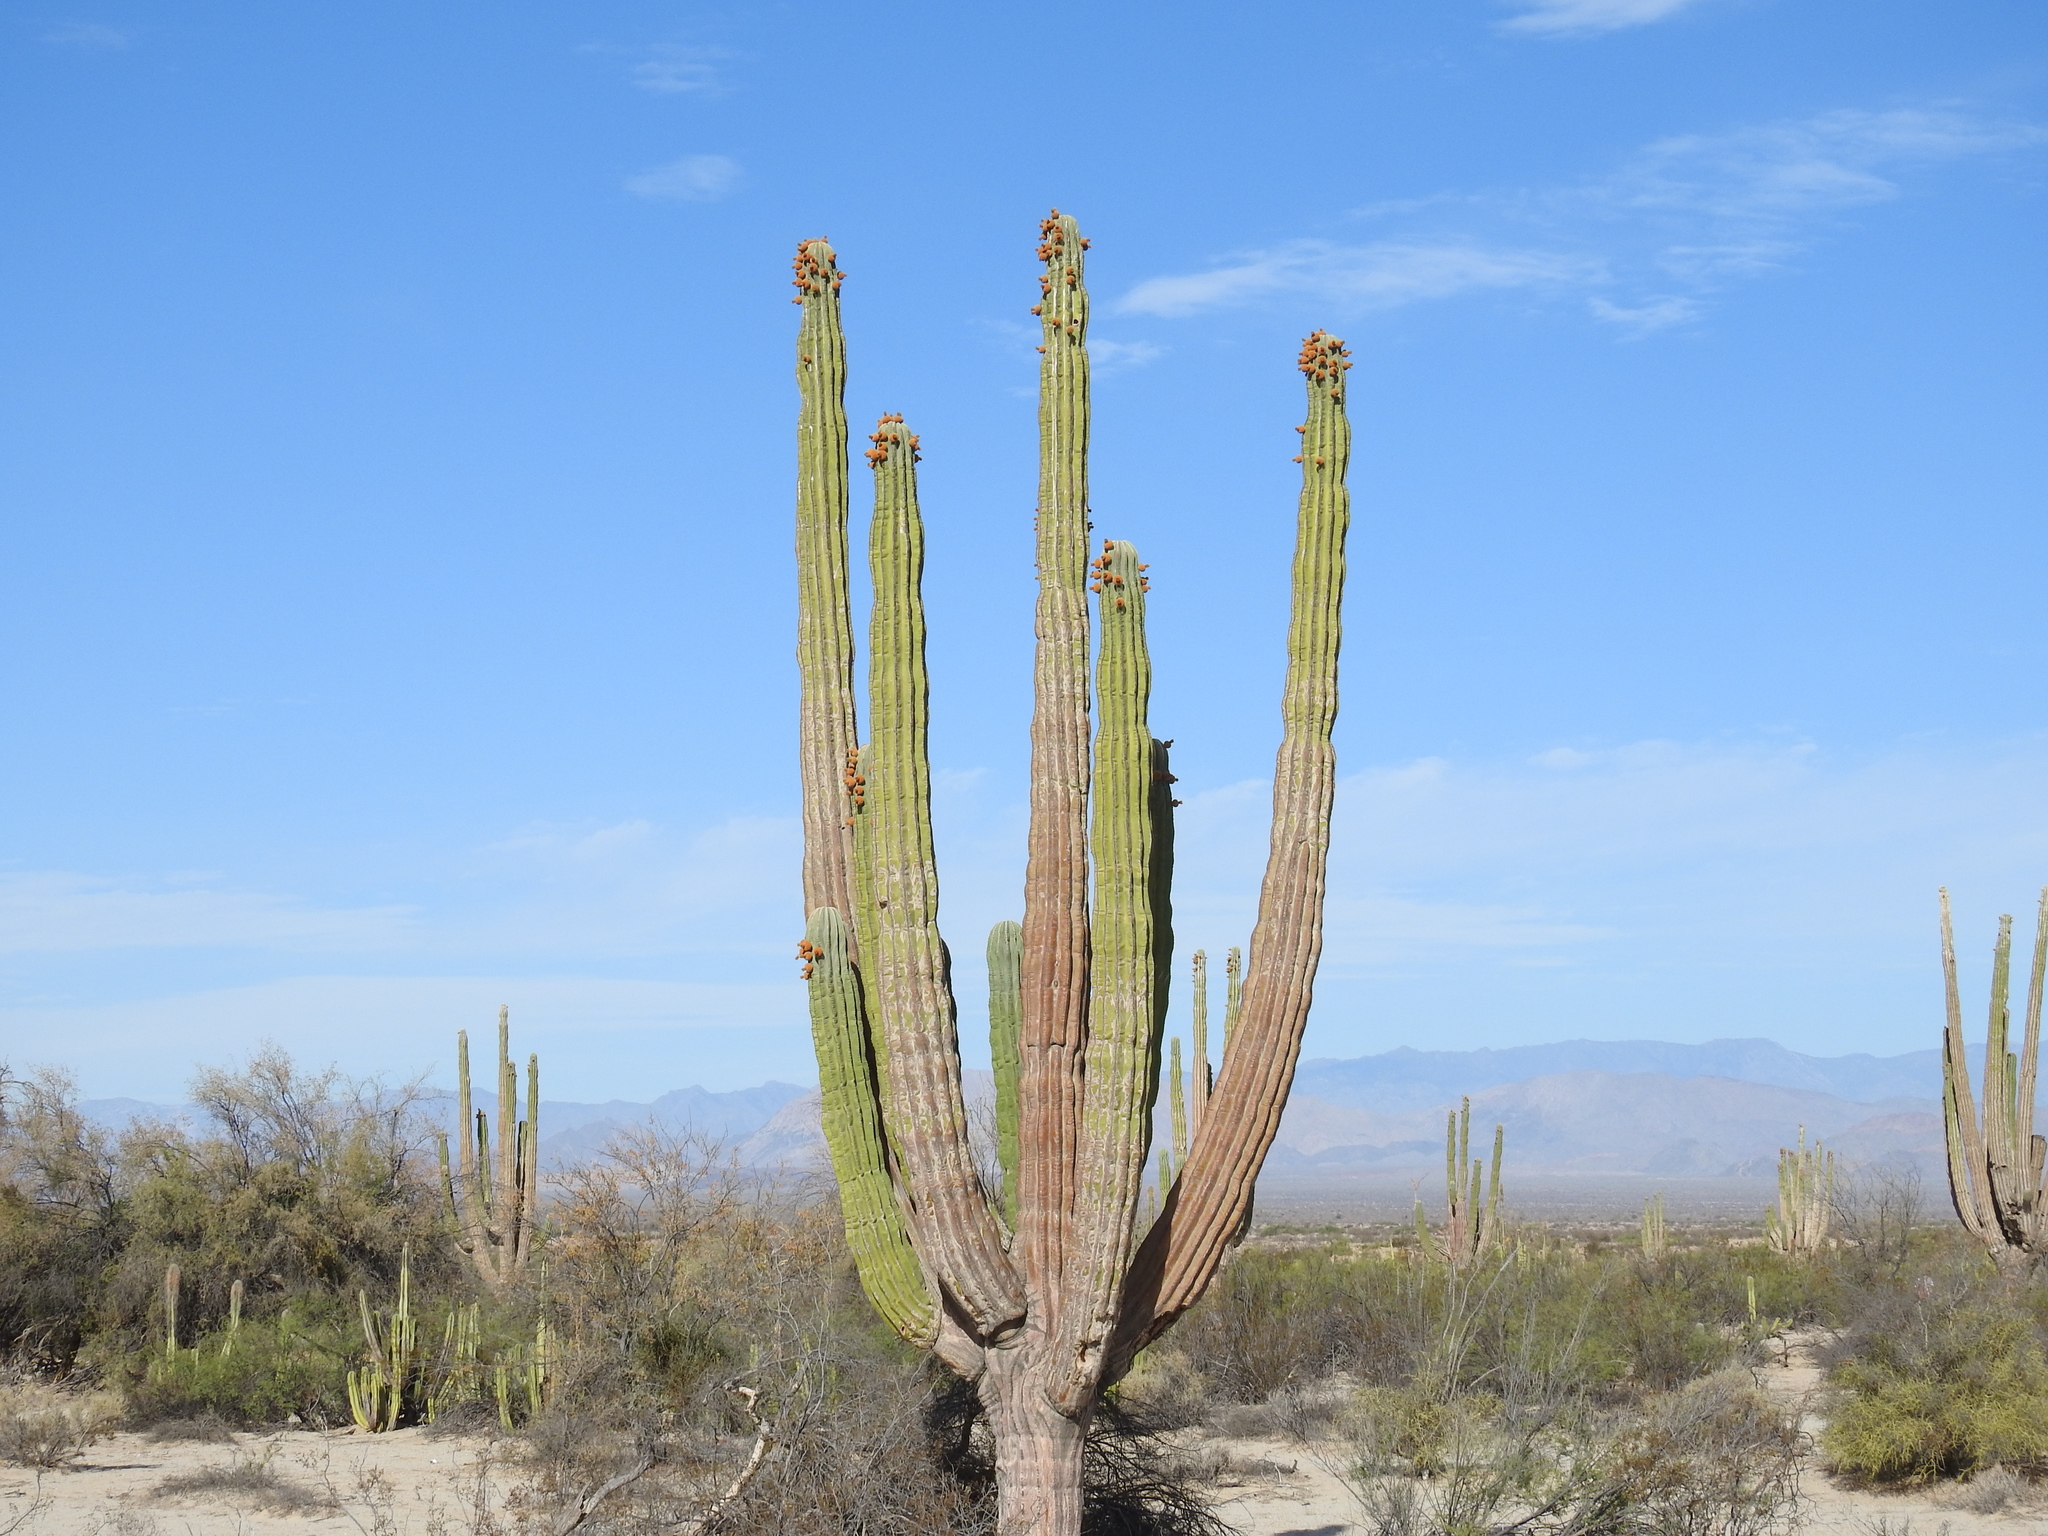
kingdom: Plantae
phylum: Tracheophyta
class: Magnoliopsida
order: Caryophyllales
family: Cactaceae
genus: Pachycereus
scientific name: Pachycereus pringlei
